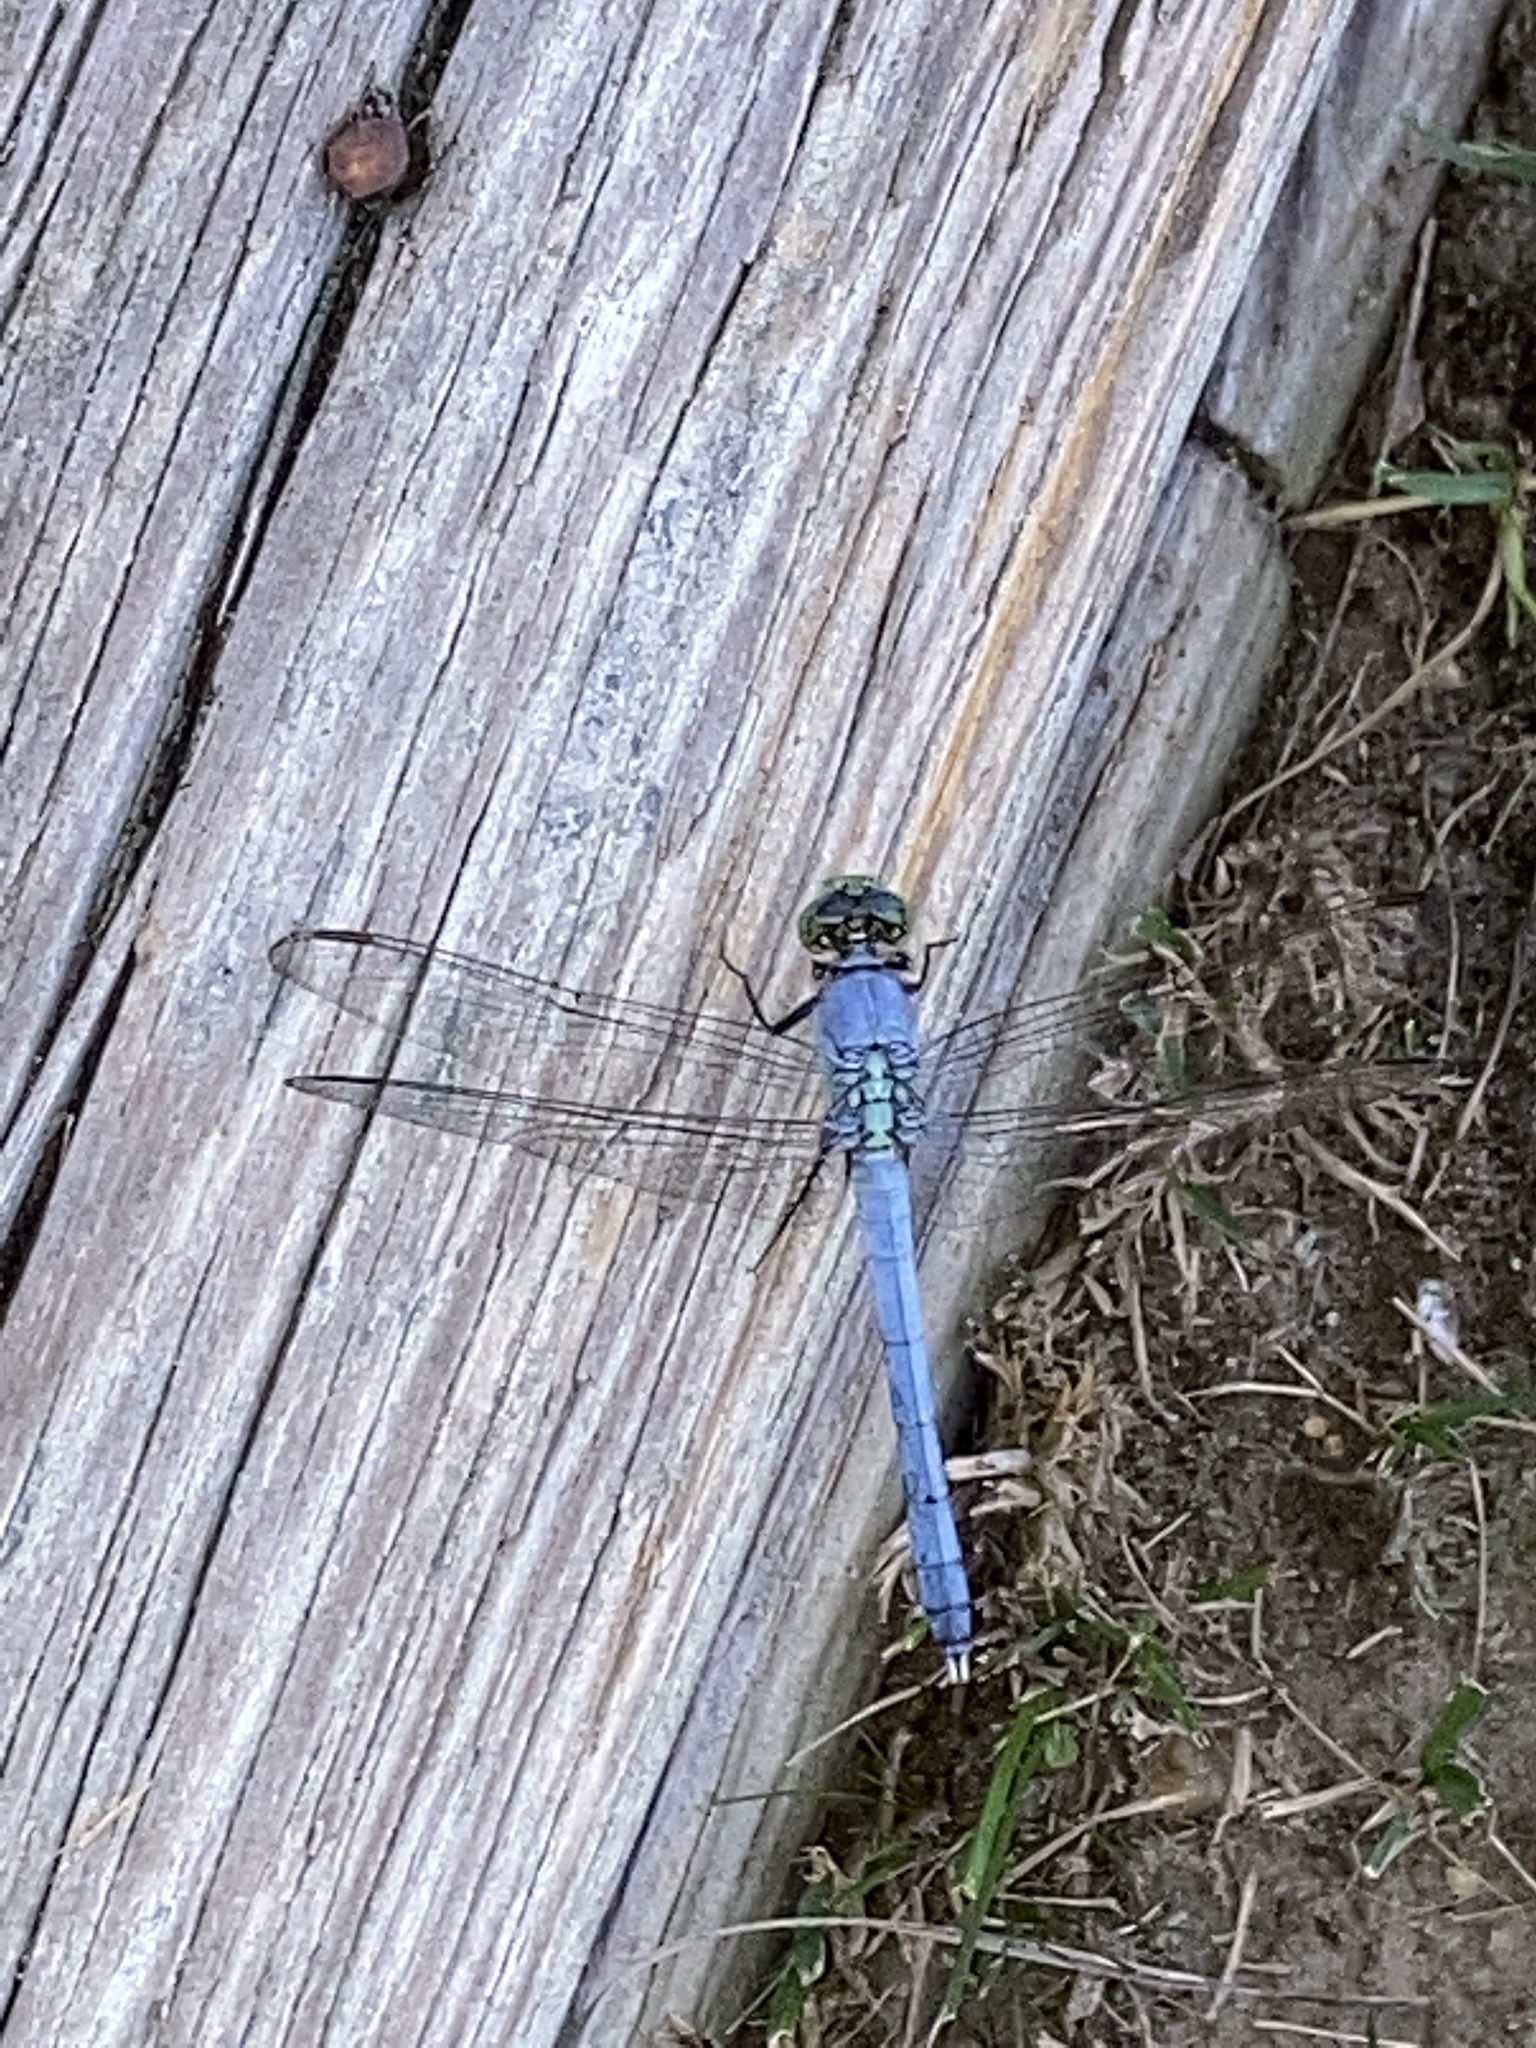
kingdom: Animalia
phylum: Arthropoda
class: Insecta
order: Odonata
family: Libellulidae
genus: Erythemis
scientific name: Erythemis simplicicollis
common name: Eastern pondhawk
